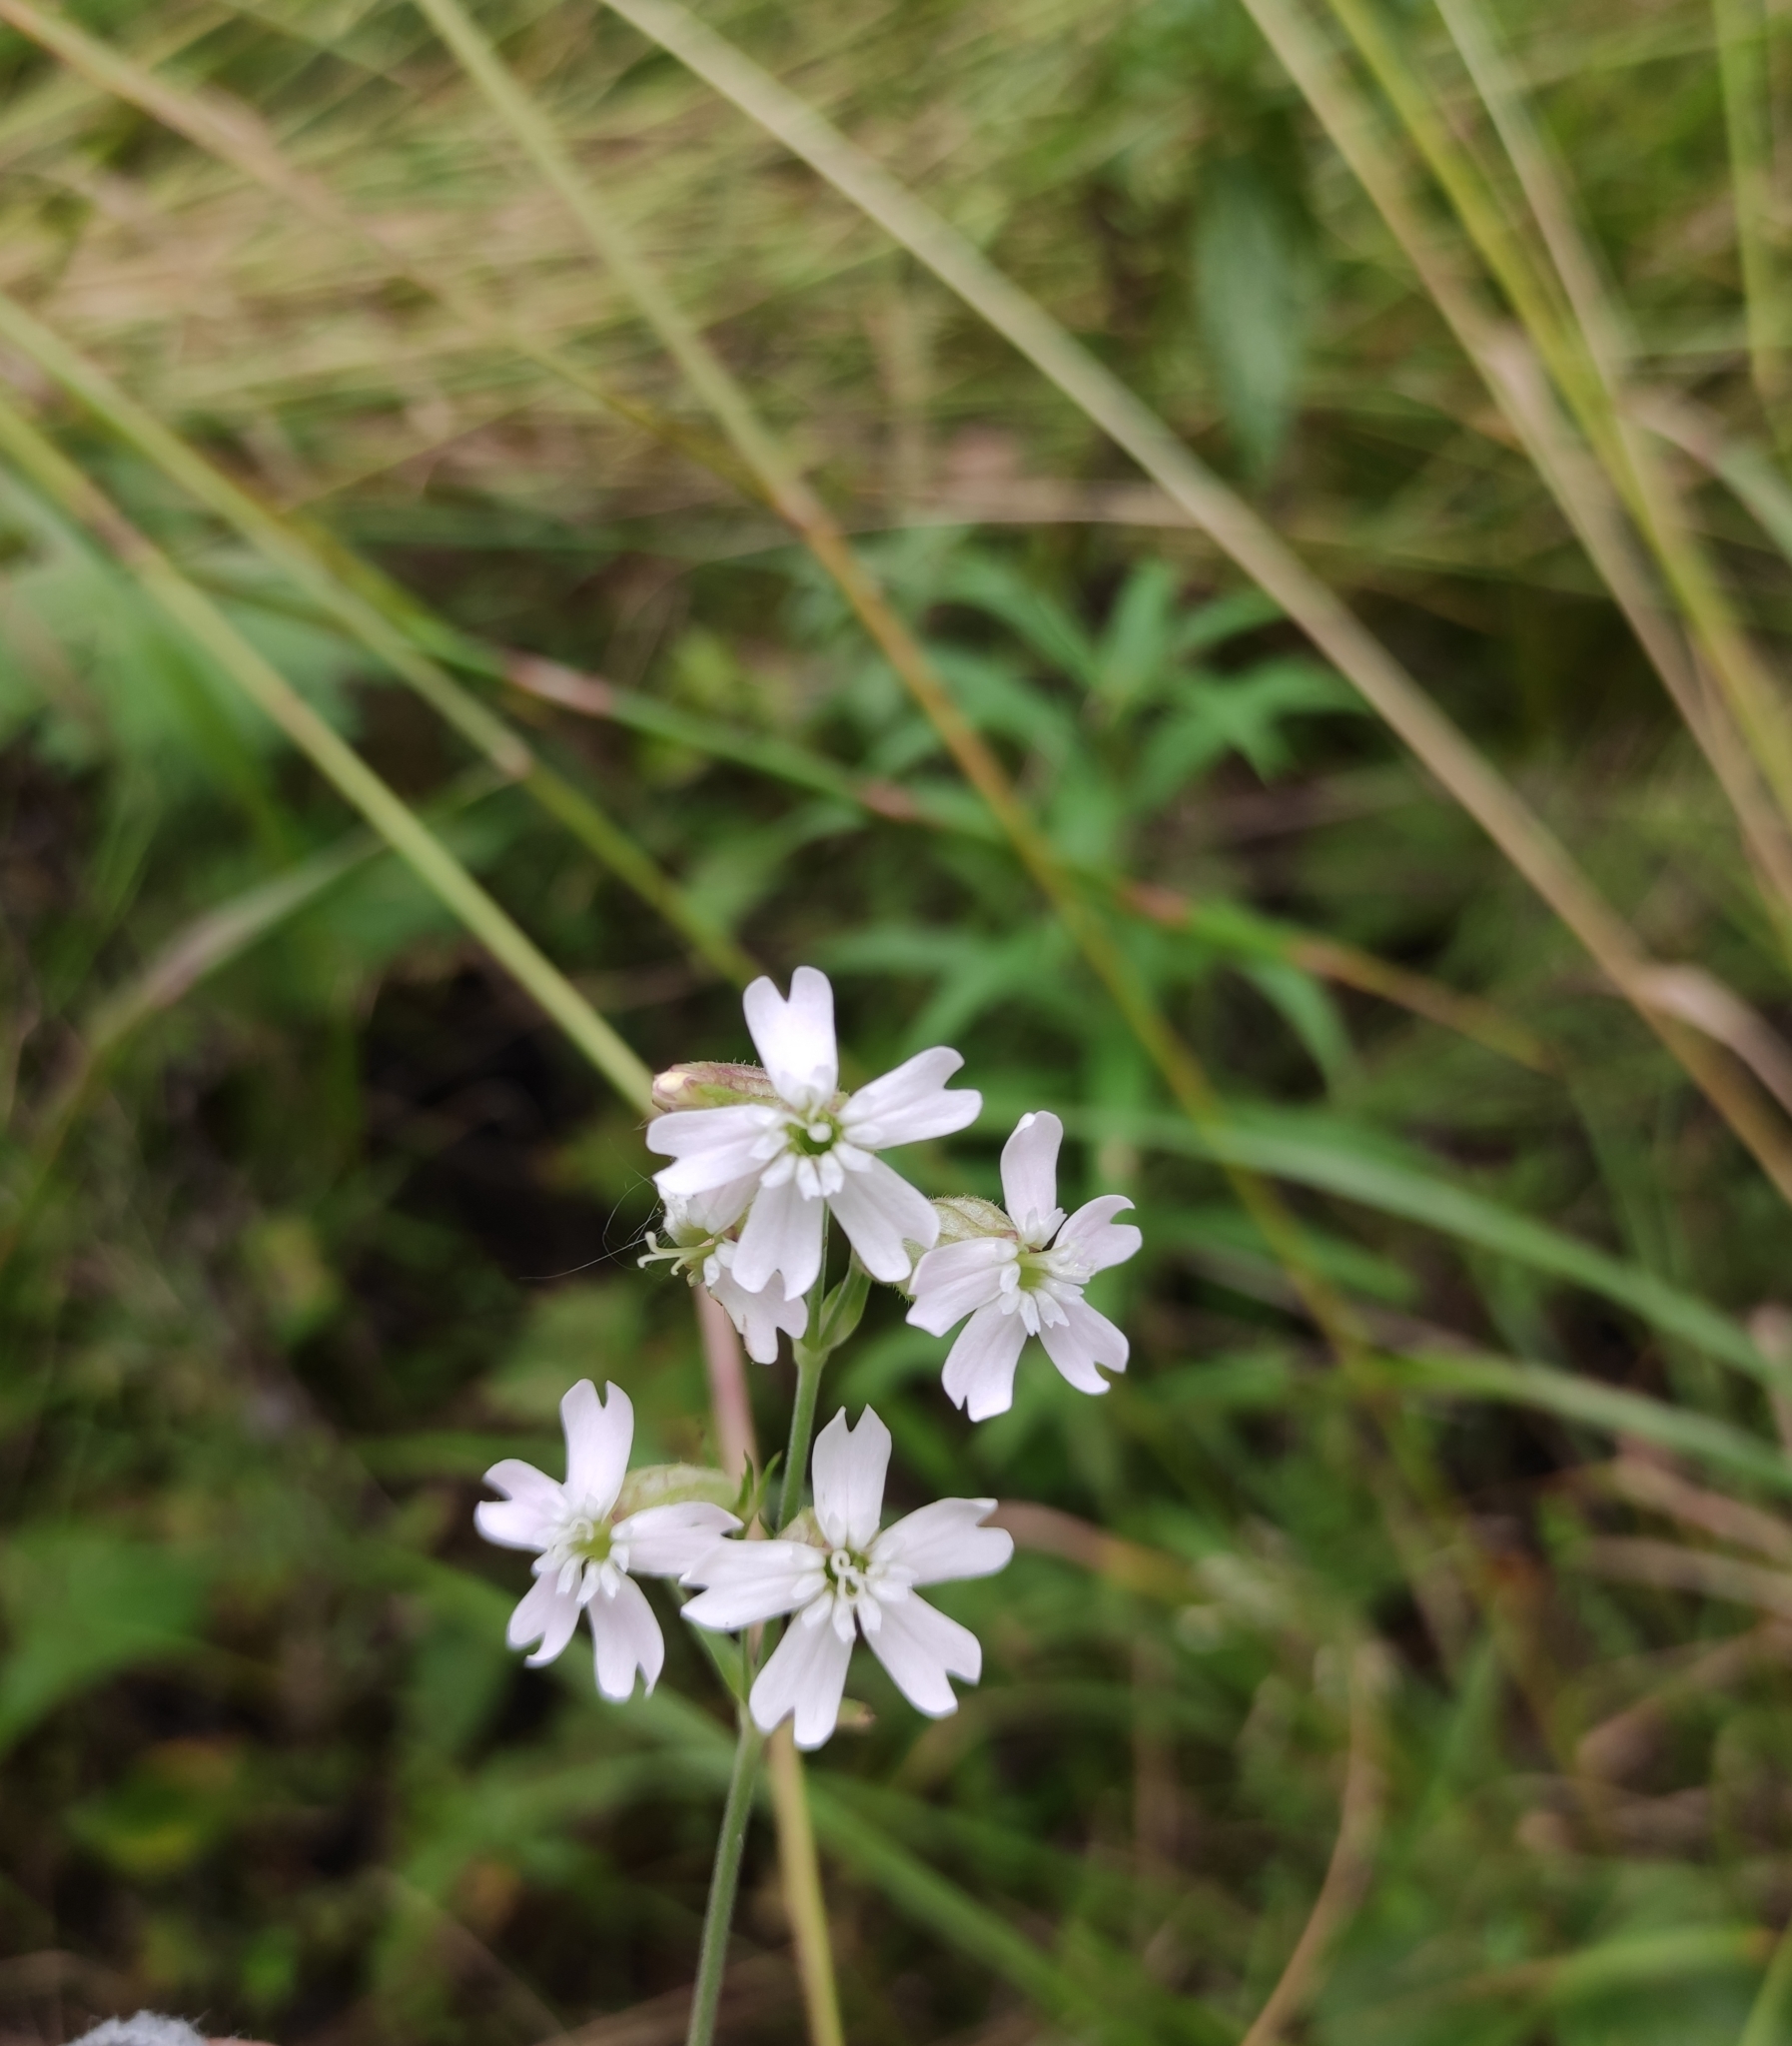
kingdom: Plantae
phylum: Tracheophyta
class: Magnoliopsida
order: Caryophyllales
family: Caryophyllaceae
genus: Silene
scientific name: Silene orientalimongolica
